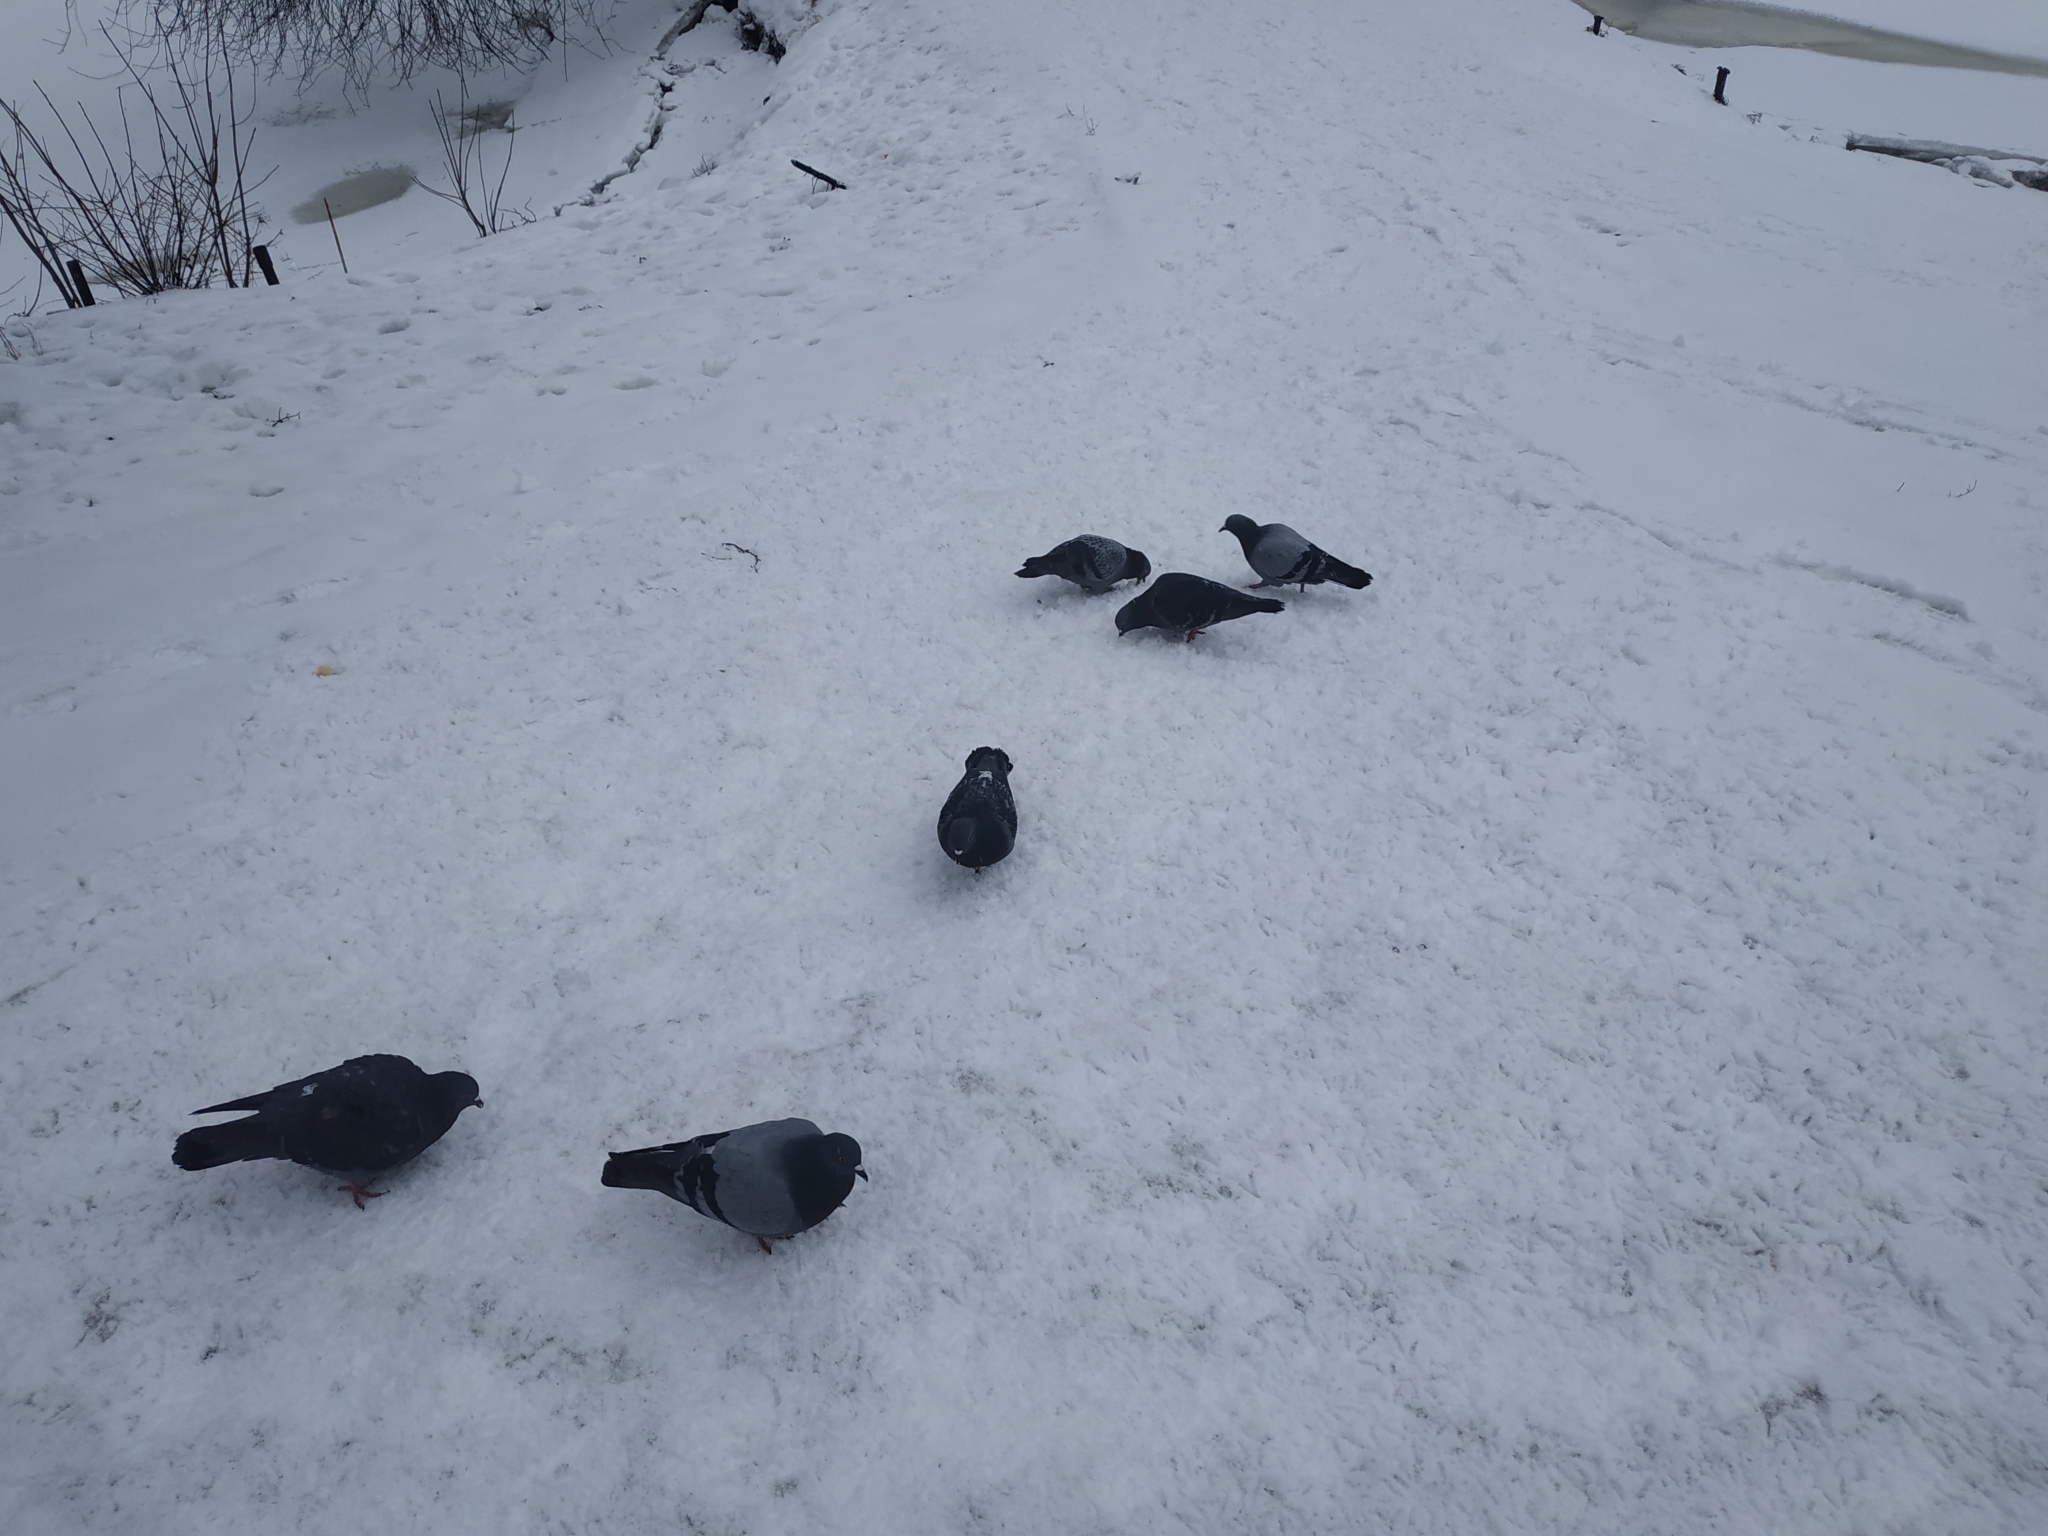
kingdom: Animalia
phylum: Chordata
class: Aves
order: Columbiformes
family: Columbidae
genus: Columba
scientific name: Columba livia
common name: Rock pigeon
